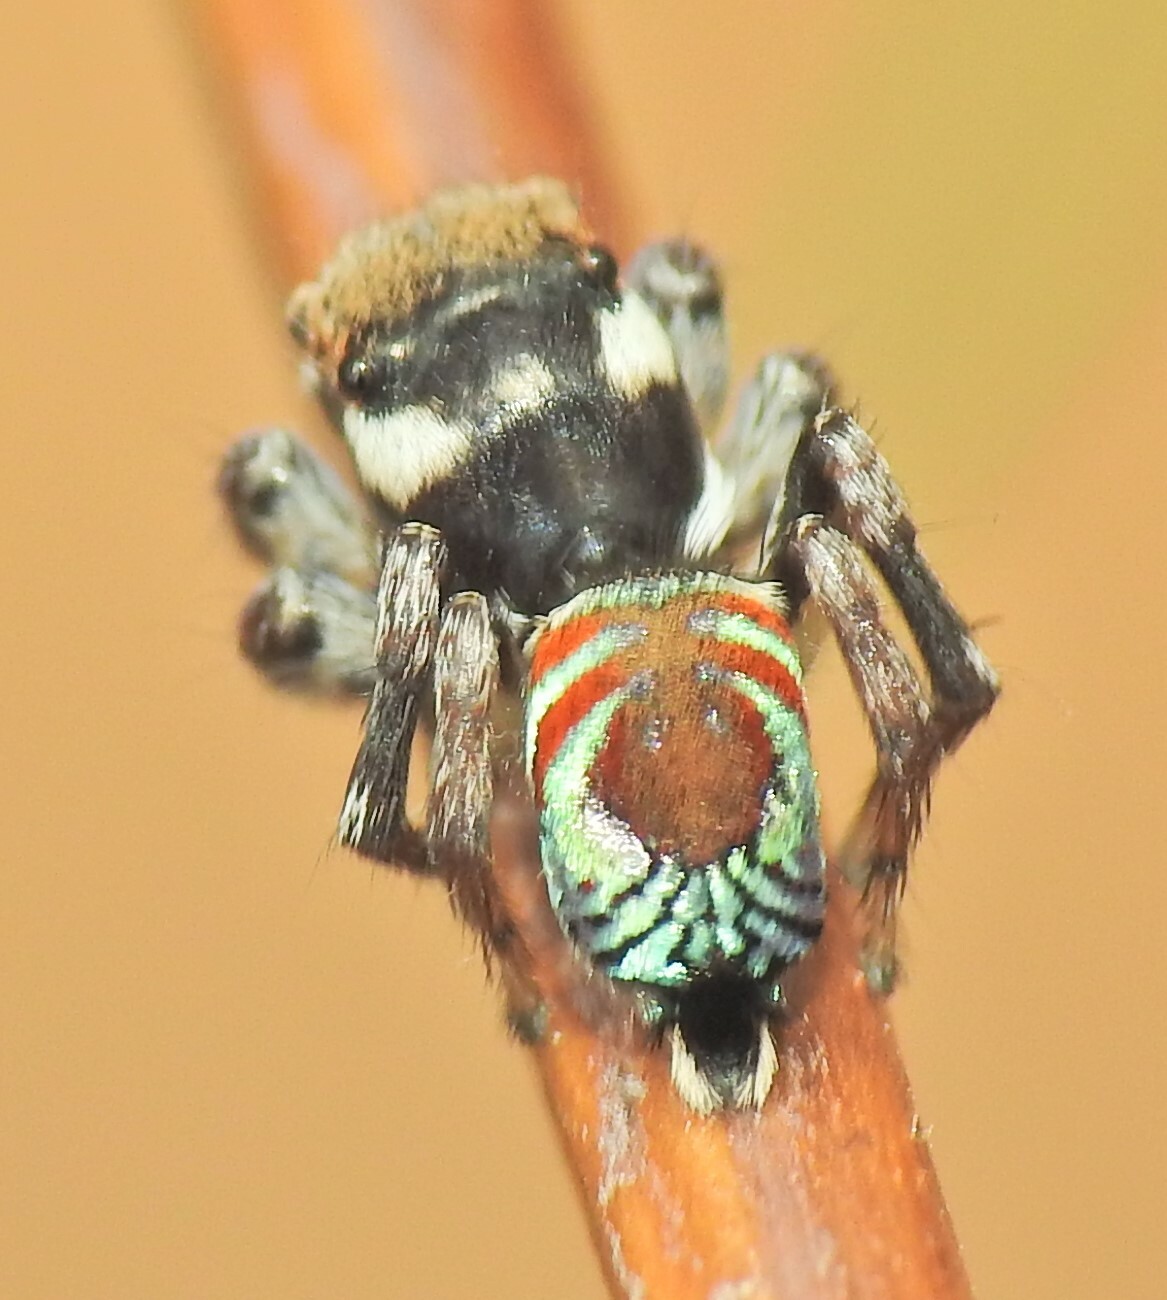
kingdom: Animalia
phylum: Arthropoda
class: Arachnida
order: Araneae
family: Salticidae
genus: Maratus
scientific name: Maratus ottoi
